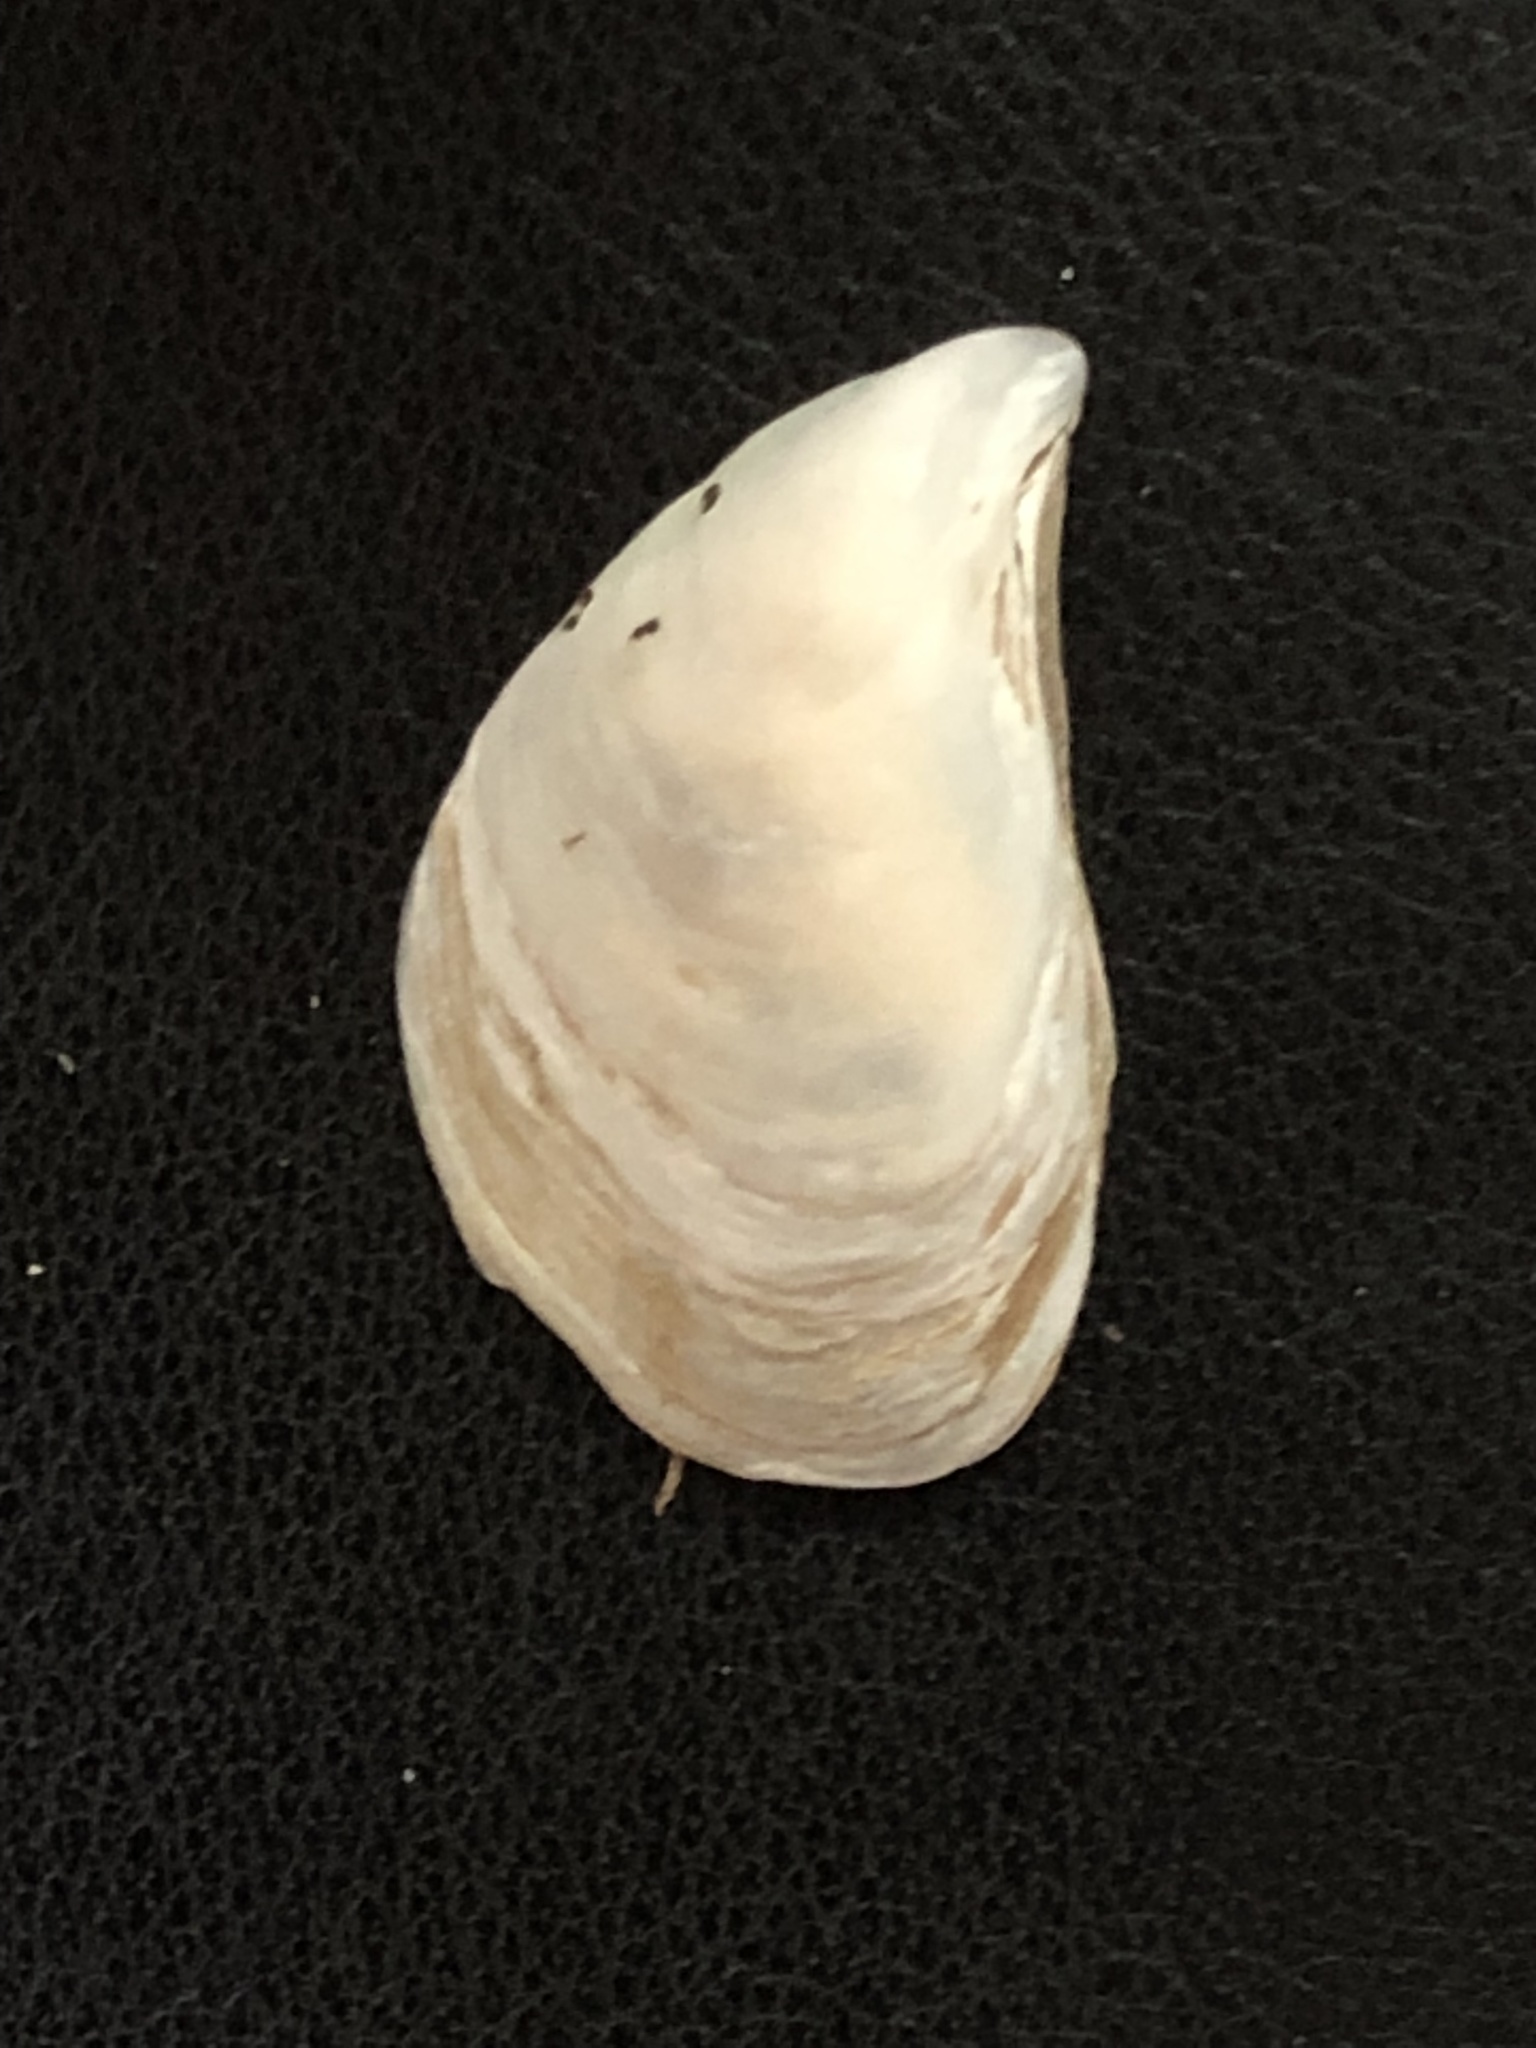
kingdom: Animalia
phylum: Mollusca
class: Bivalvia
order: Myida
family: Dreissenidae
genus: Dreissena
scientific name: Dreissena bugensis
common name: Quagga mussel
